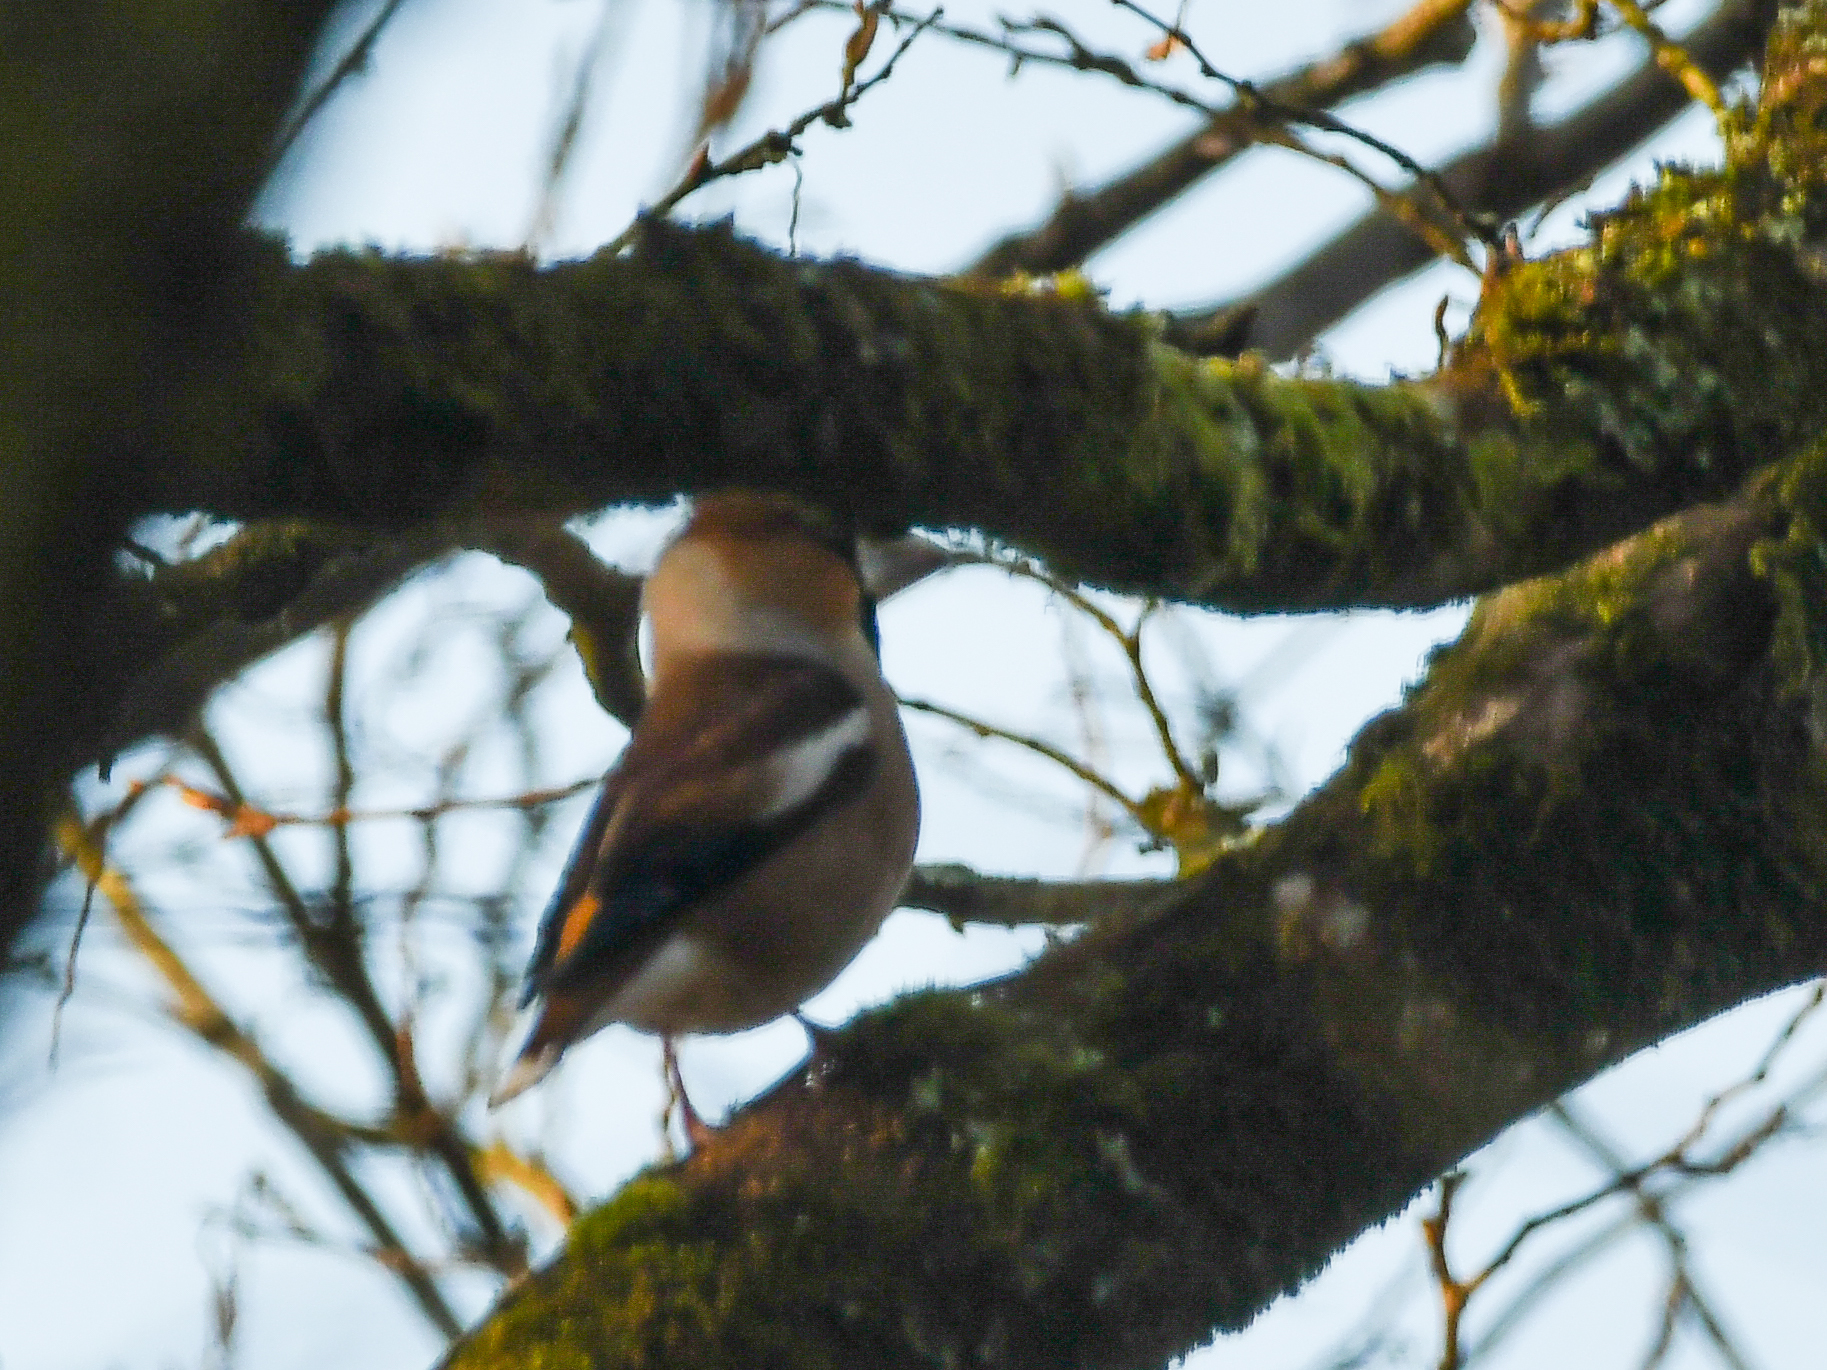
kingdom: Animalia
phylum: Chordata
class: Aves
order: Passeriformes
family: Fringillidae
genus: Coccothraustes
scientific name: Coccothraustes coccothraustes
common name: Hawfinch
